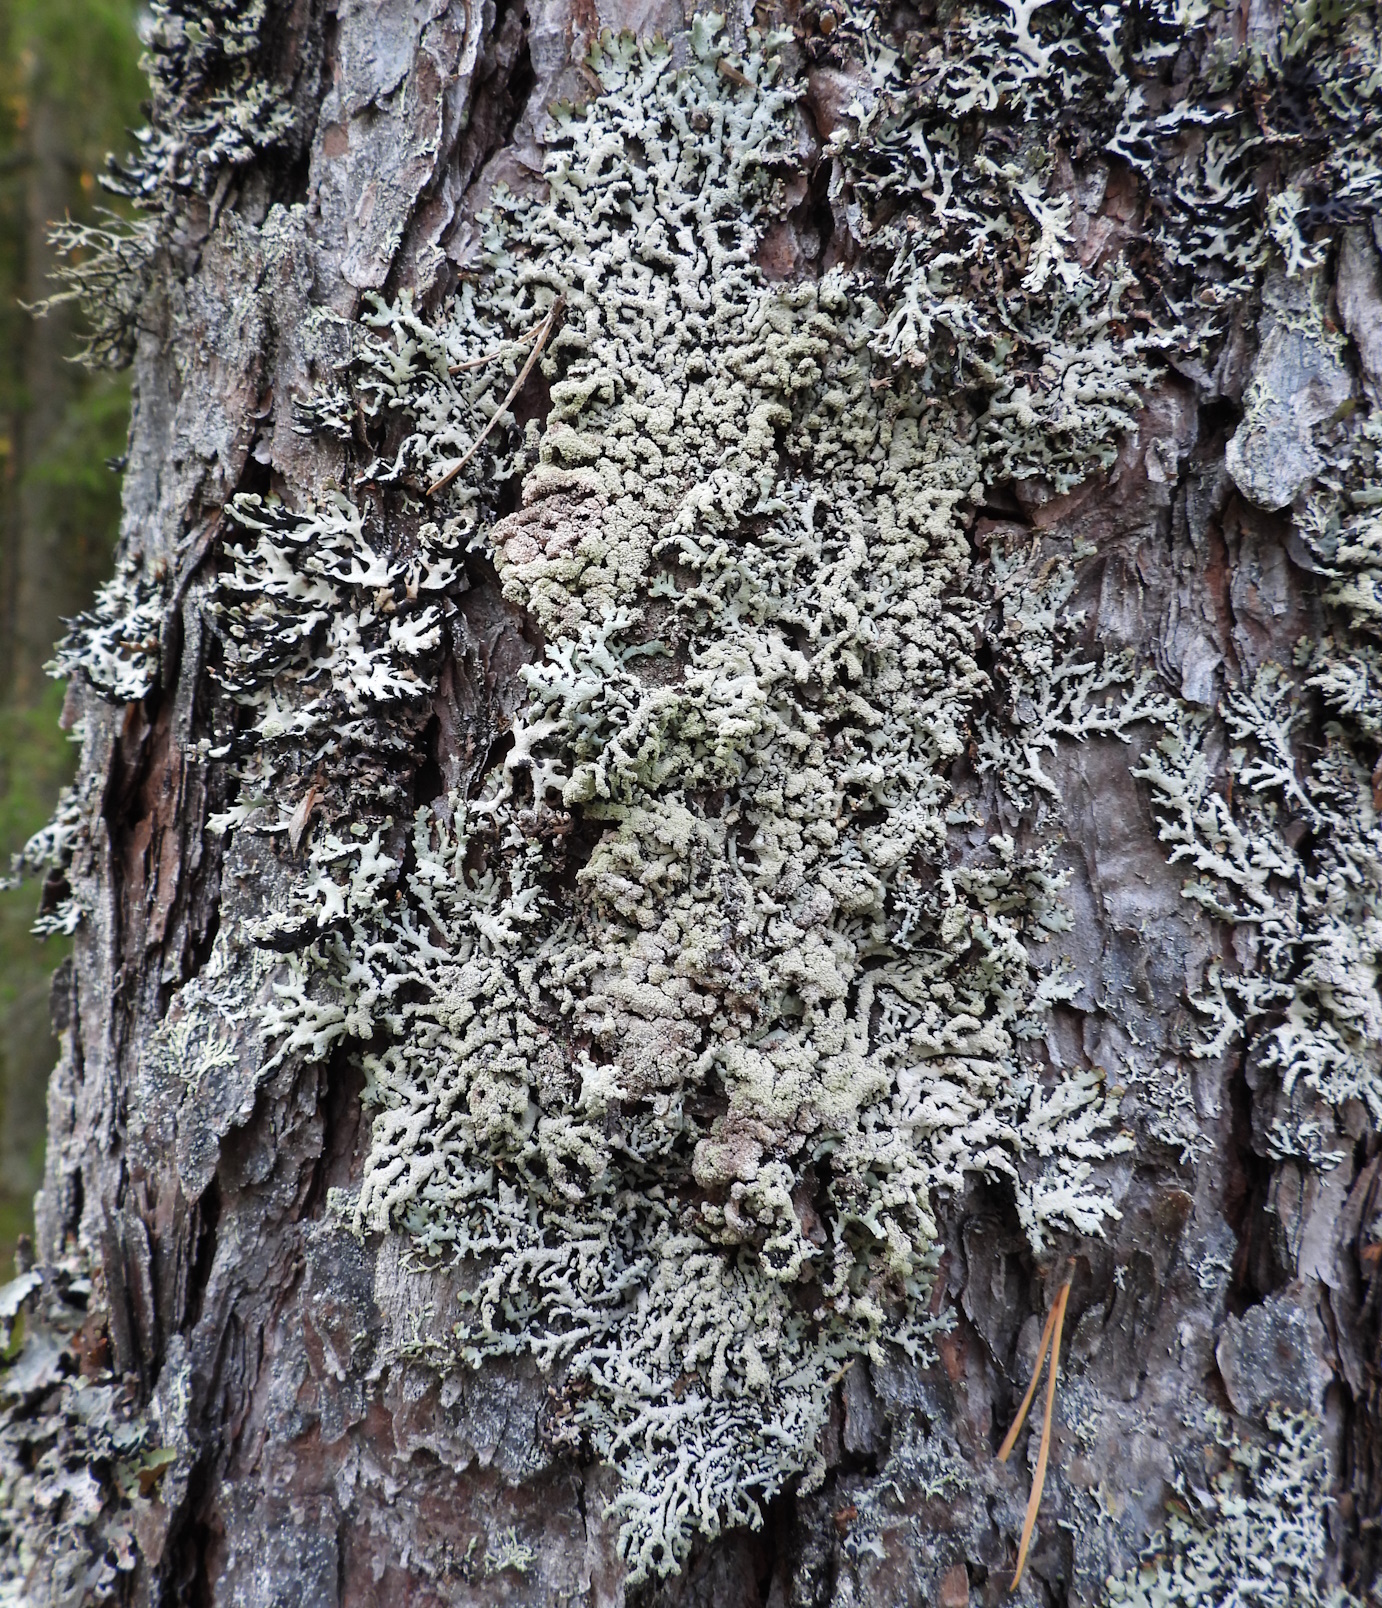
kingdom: Fungi
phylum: Ascomycota
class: Lecanoromycetes
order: Lecanorales
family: Parmeliaceae
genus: Hypogymnia
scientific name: Hypogymnia farinacea
